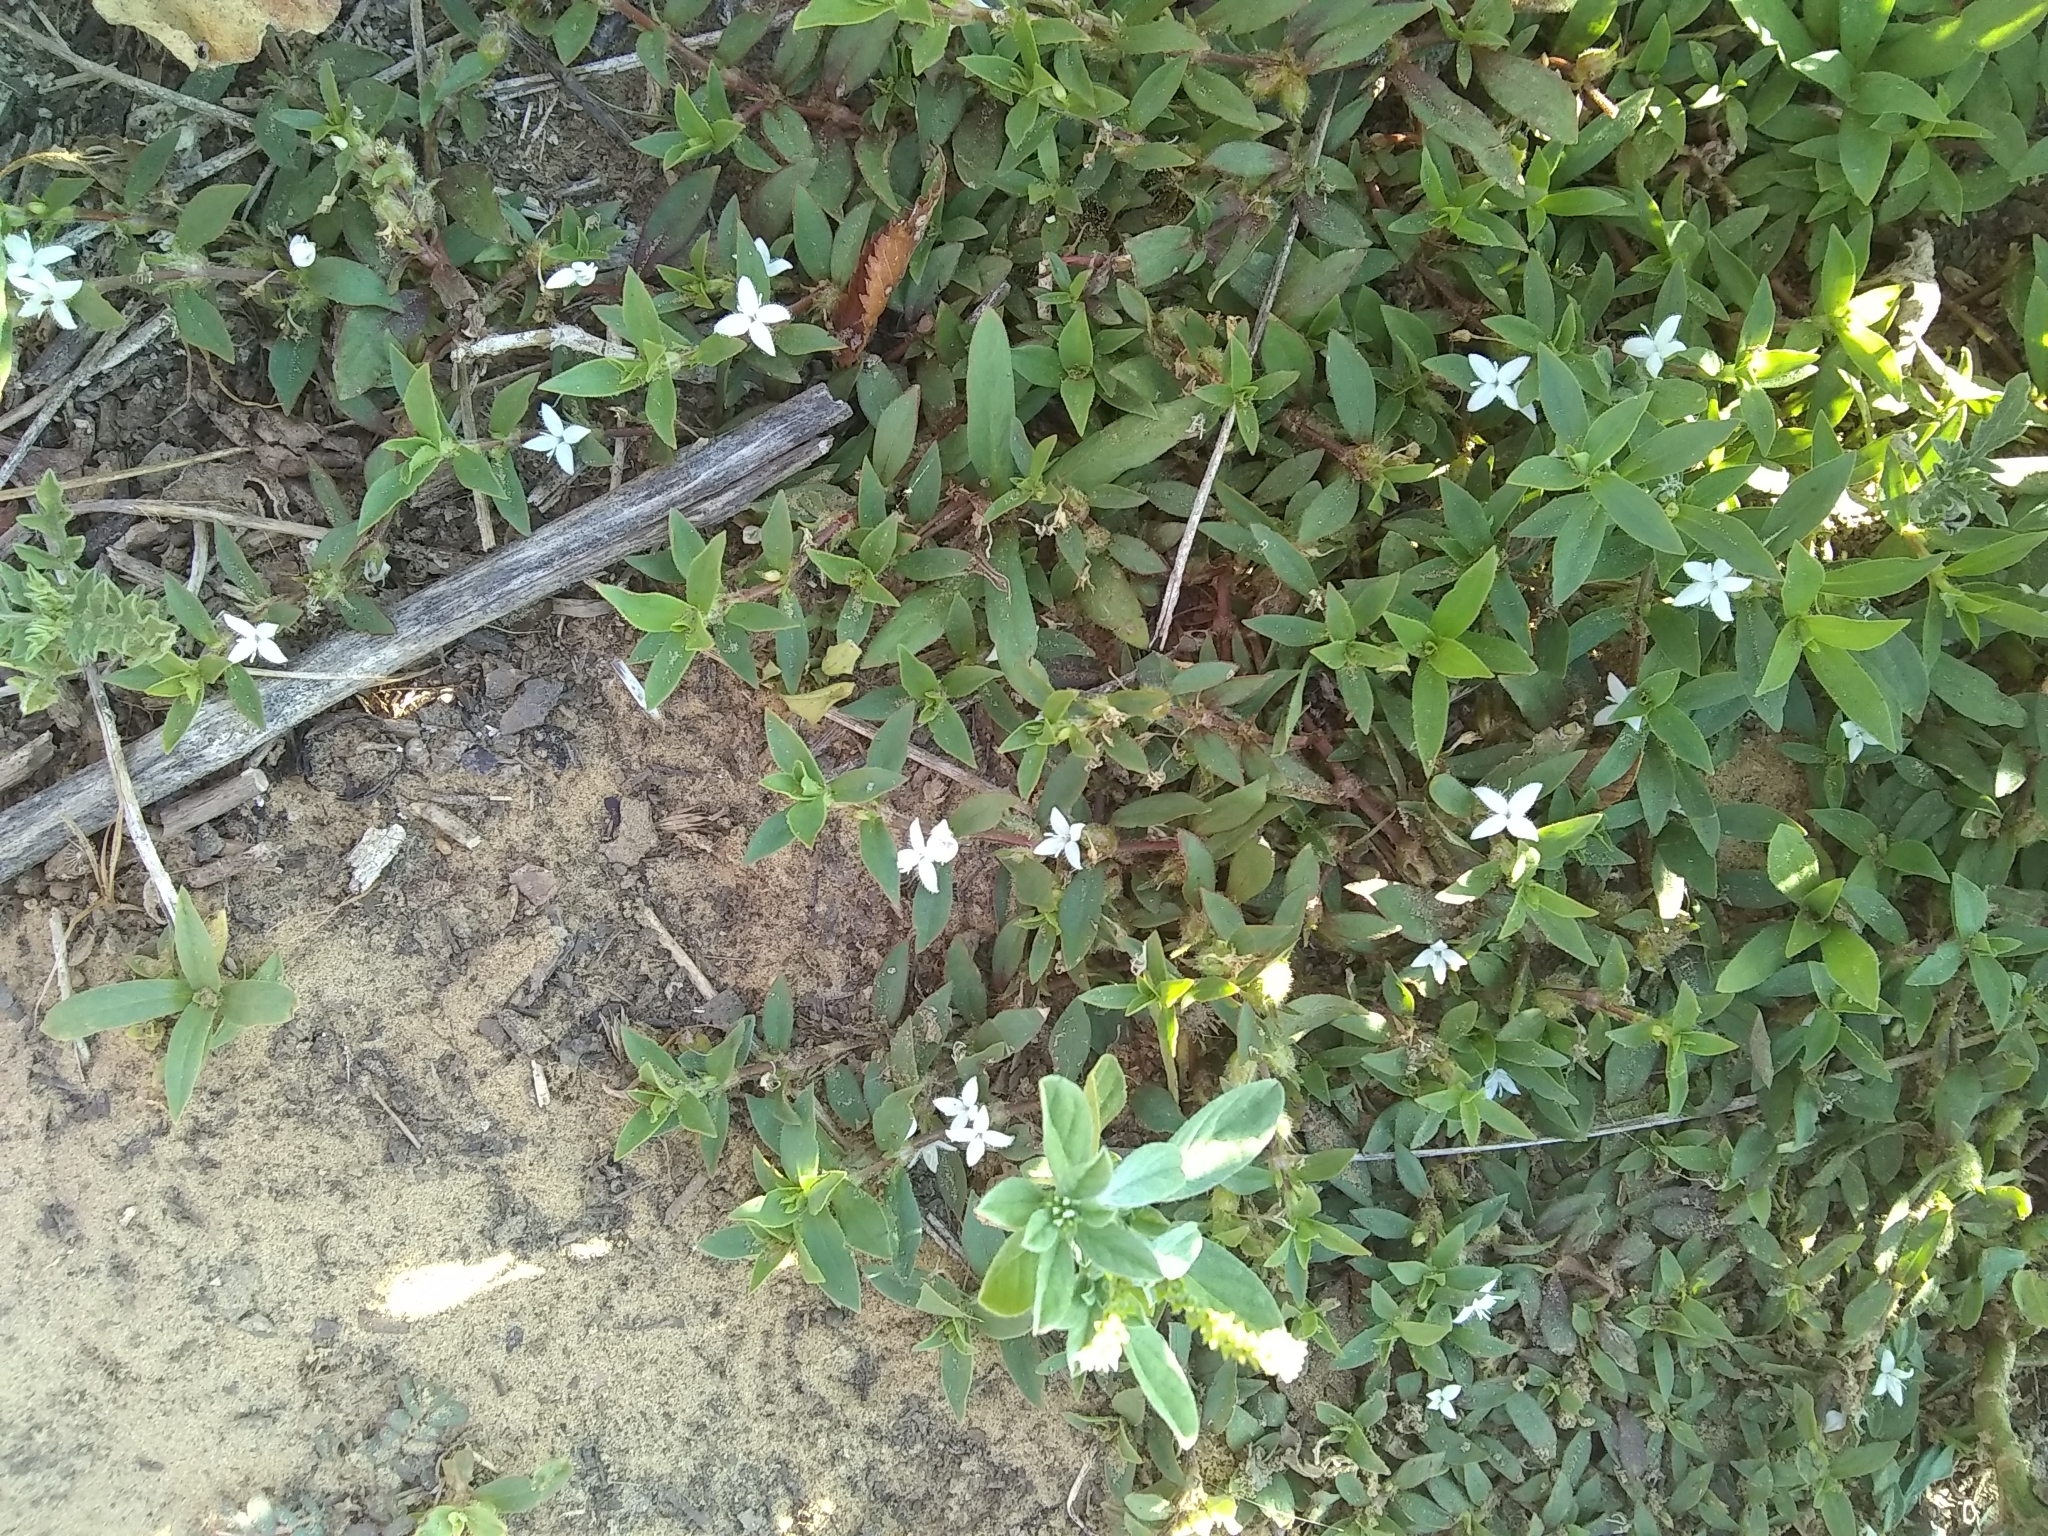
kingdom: Plantae
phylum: Tracheophyta
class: Magnoliopsida
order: Gentianales
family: Rubiaceae
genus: Diodia
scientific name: Diodia virginiana
